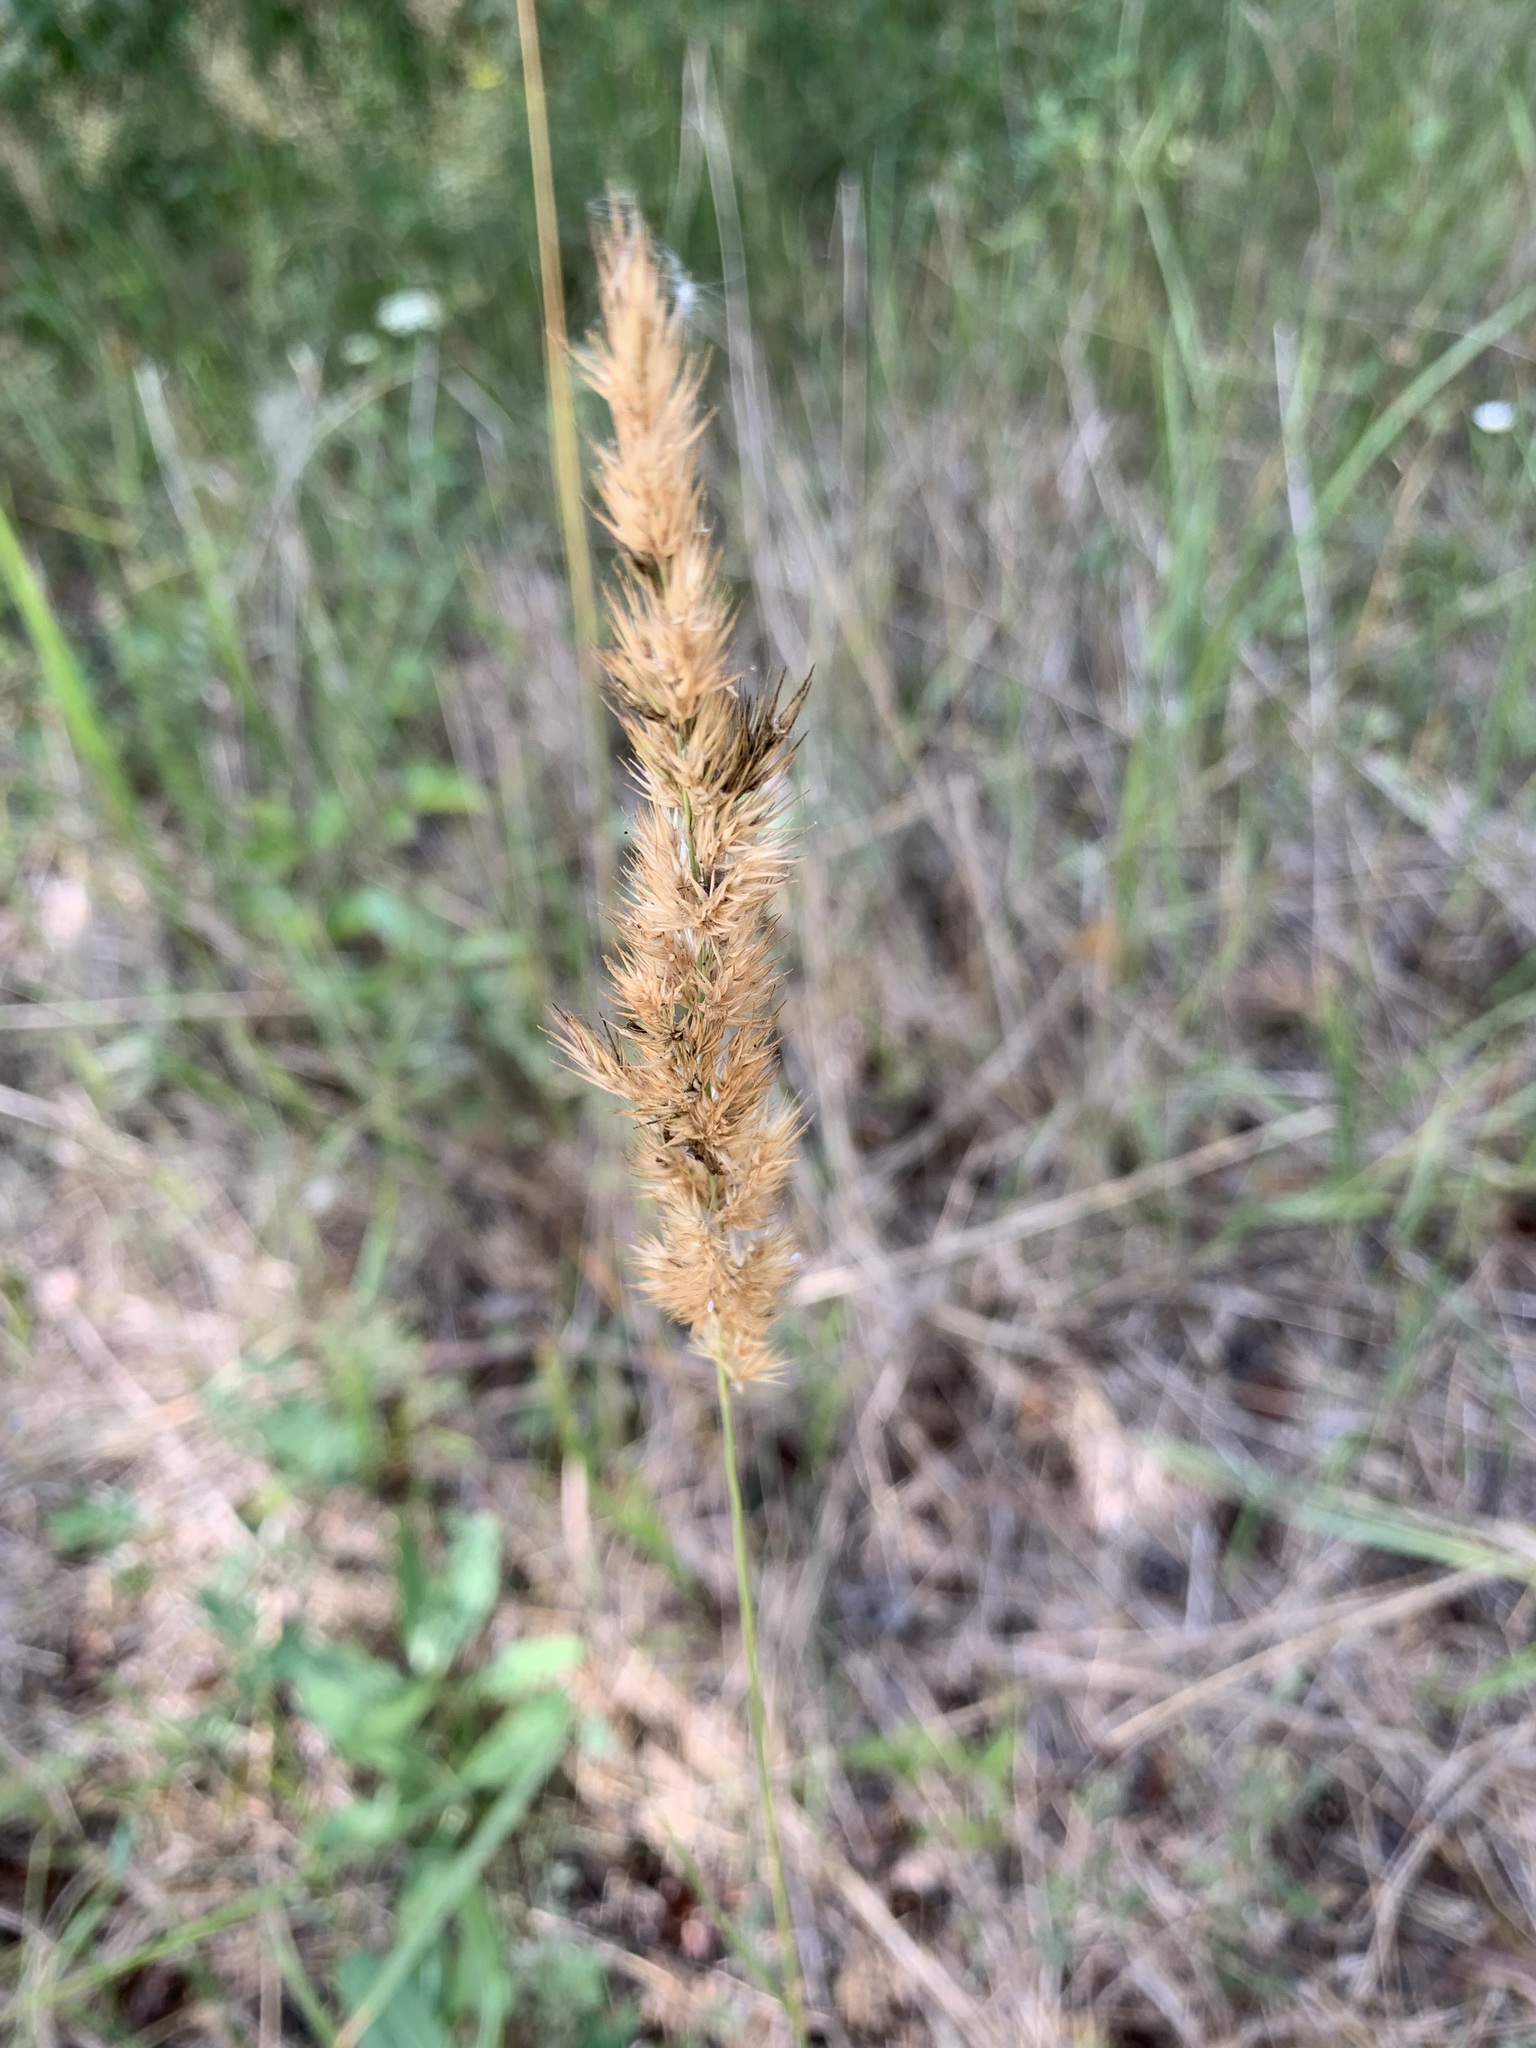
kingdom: Plantae
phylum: Tracheophyta
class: Liliopsida
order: Poales
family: Poaceae
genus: Calamagrostis
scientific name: Calamagrostis epigejos
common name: Wood small-reed
